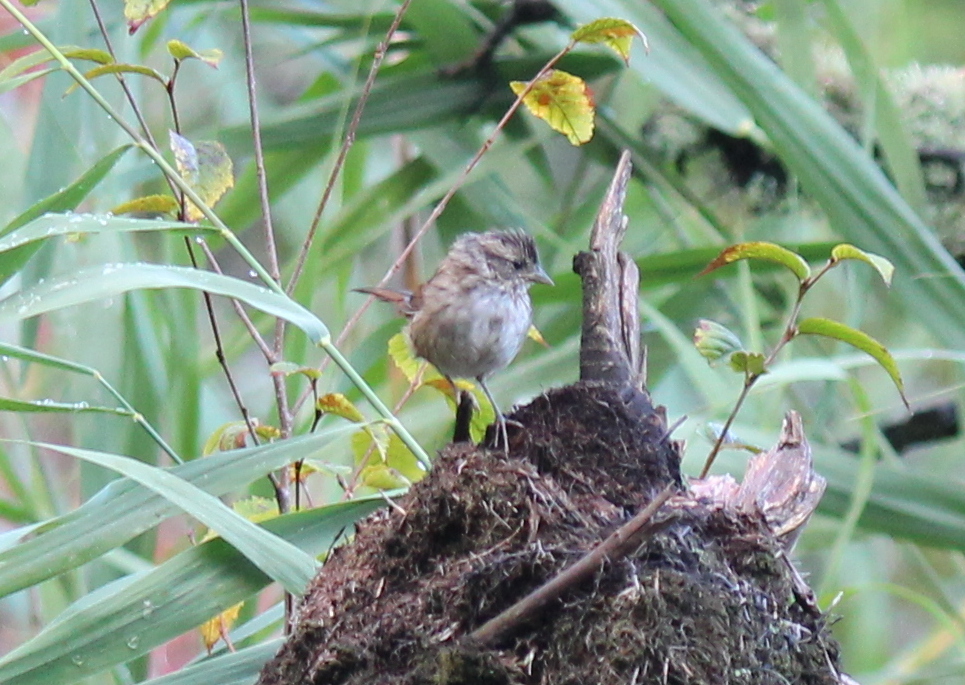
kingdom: Animalia
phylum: Chordata
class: Aves
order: Passeriformes
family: Passerellidae
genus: Melospiza
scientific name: Melospiza georgiana
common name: Swamp sparrow
